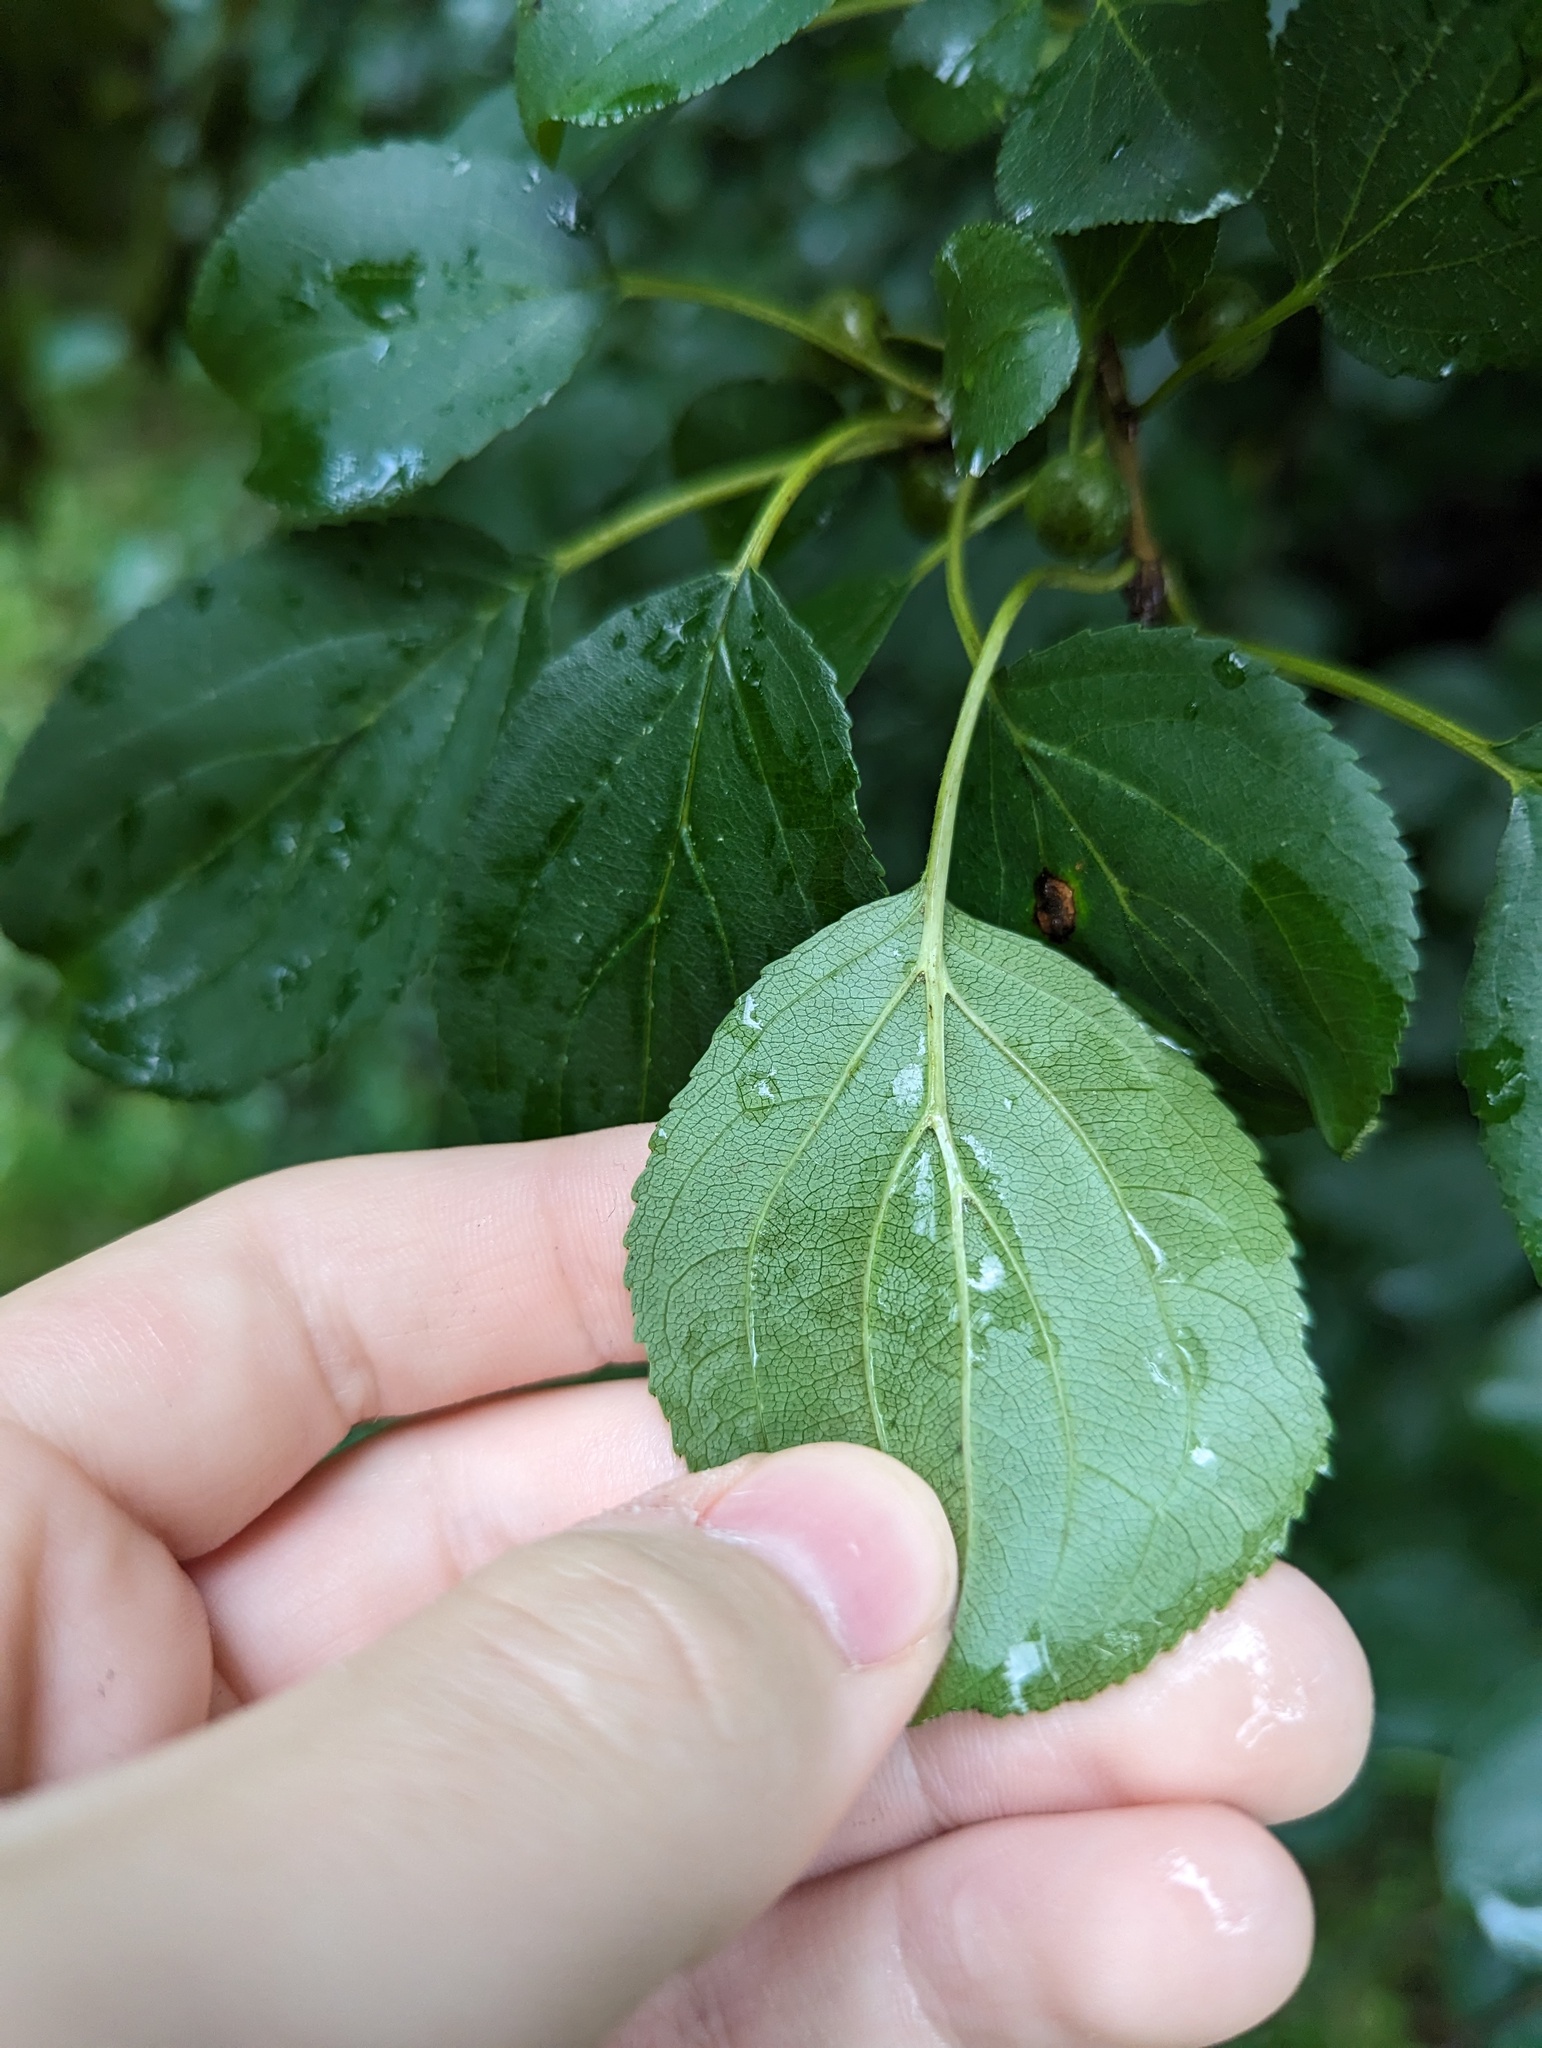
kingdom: Plantae
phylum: Tracheophyta
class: Magnoliopsida
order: Rosales
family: Rhamnaceae
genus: Rhamnus
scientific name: Rhamnus cathartica
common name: Common buckthorn
